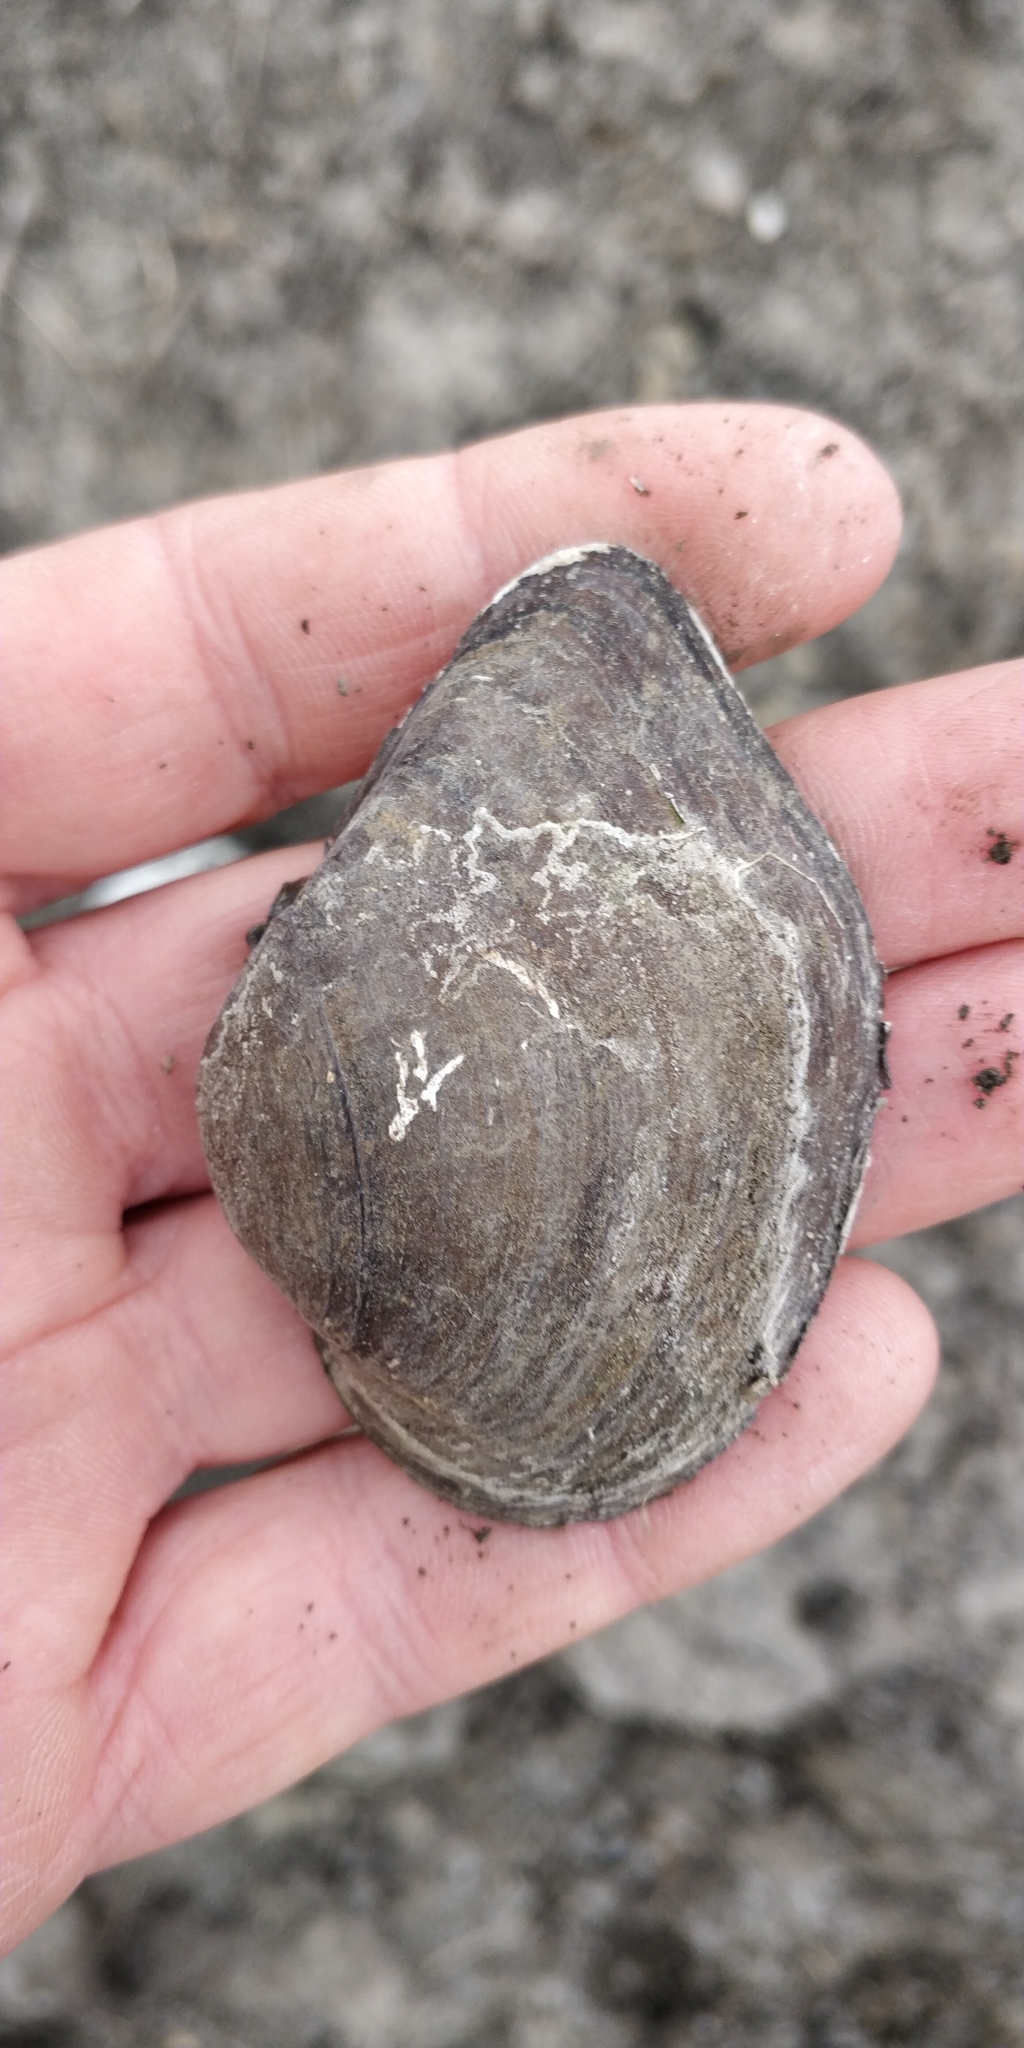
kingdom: Animalia
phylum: Mollusca
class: Bivalvia
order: Unionida
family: Unionidae
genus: Truncilla
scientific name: Truncilla truncata
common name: Deertoe
